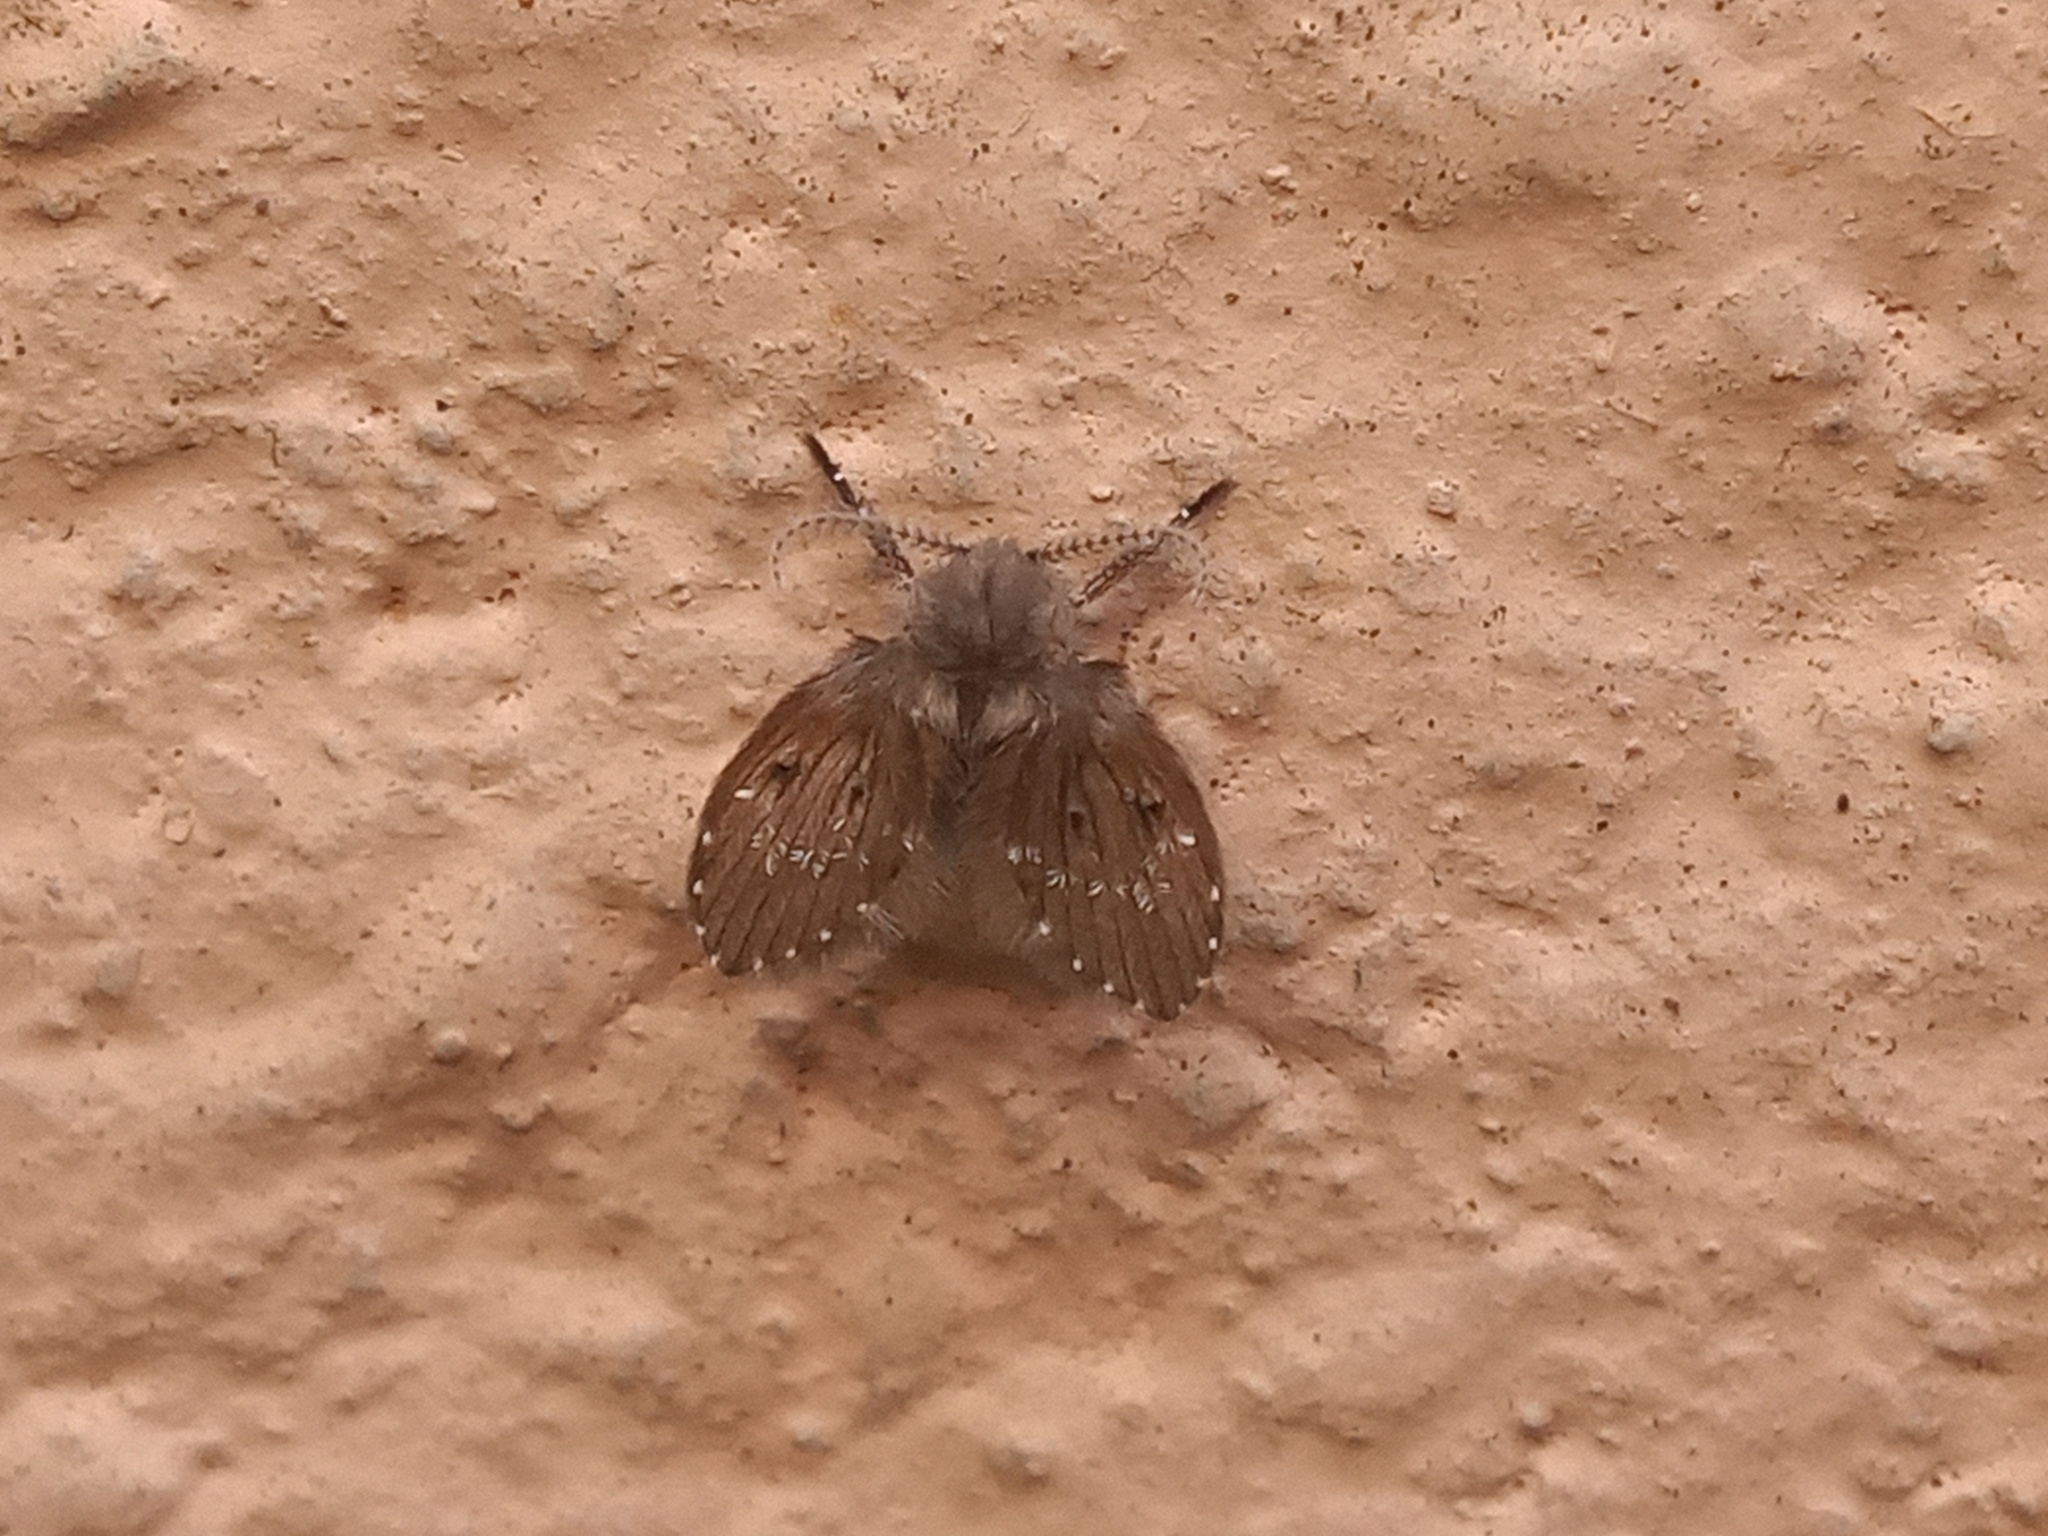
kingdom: Animalia
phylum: Arthropoda
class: Insecta
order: Diptera
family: Psychodidae
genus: Clogmia
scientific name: Clogmia albipunctatus
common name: White-spotted moth fly
